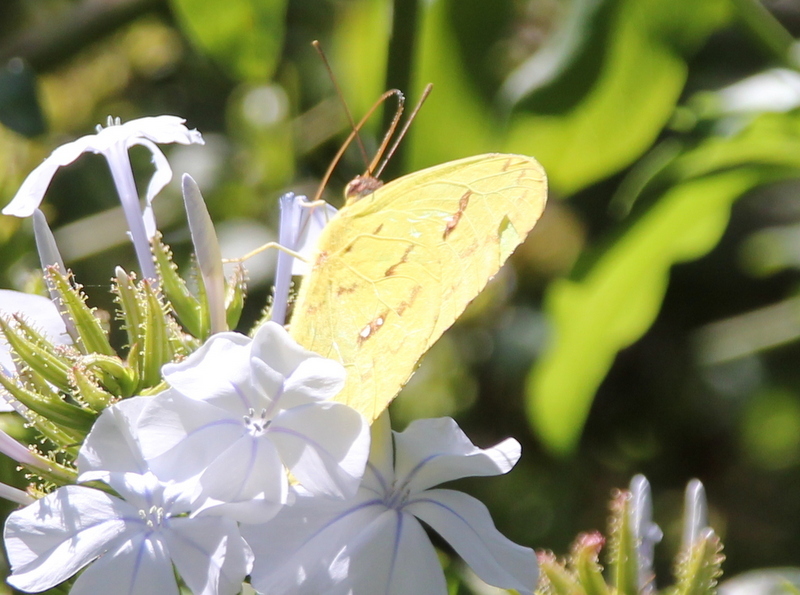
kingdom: Animalia
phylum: Arthropoda
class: Insecta
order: Lepidoptera
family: Pieridae
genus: Phoebis
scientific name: Phoebis sennae
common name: Cloudless sulphur
